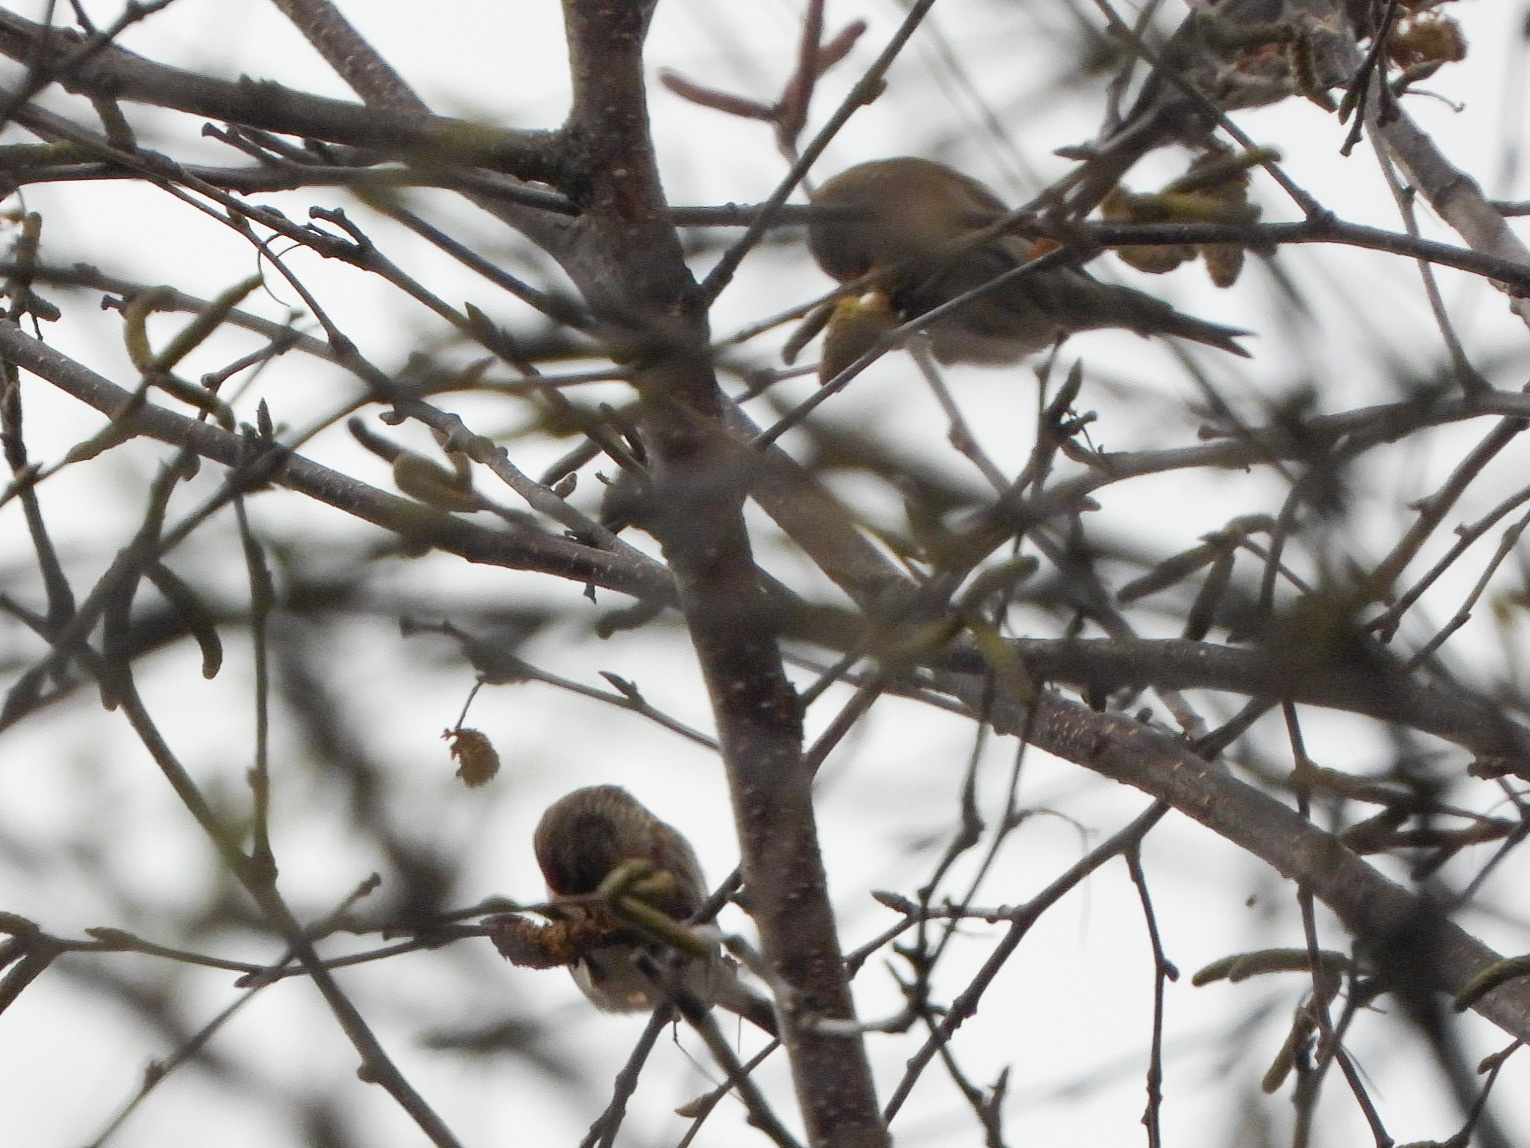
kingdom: Animalia
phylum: Chordata
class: Aves
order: Passeriformes
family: Fringillidae
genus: Acanthis
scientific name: Acanthis flammea
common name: Common redpoll
